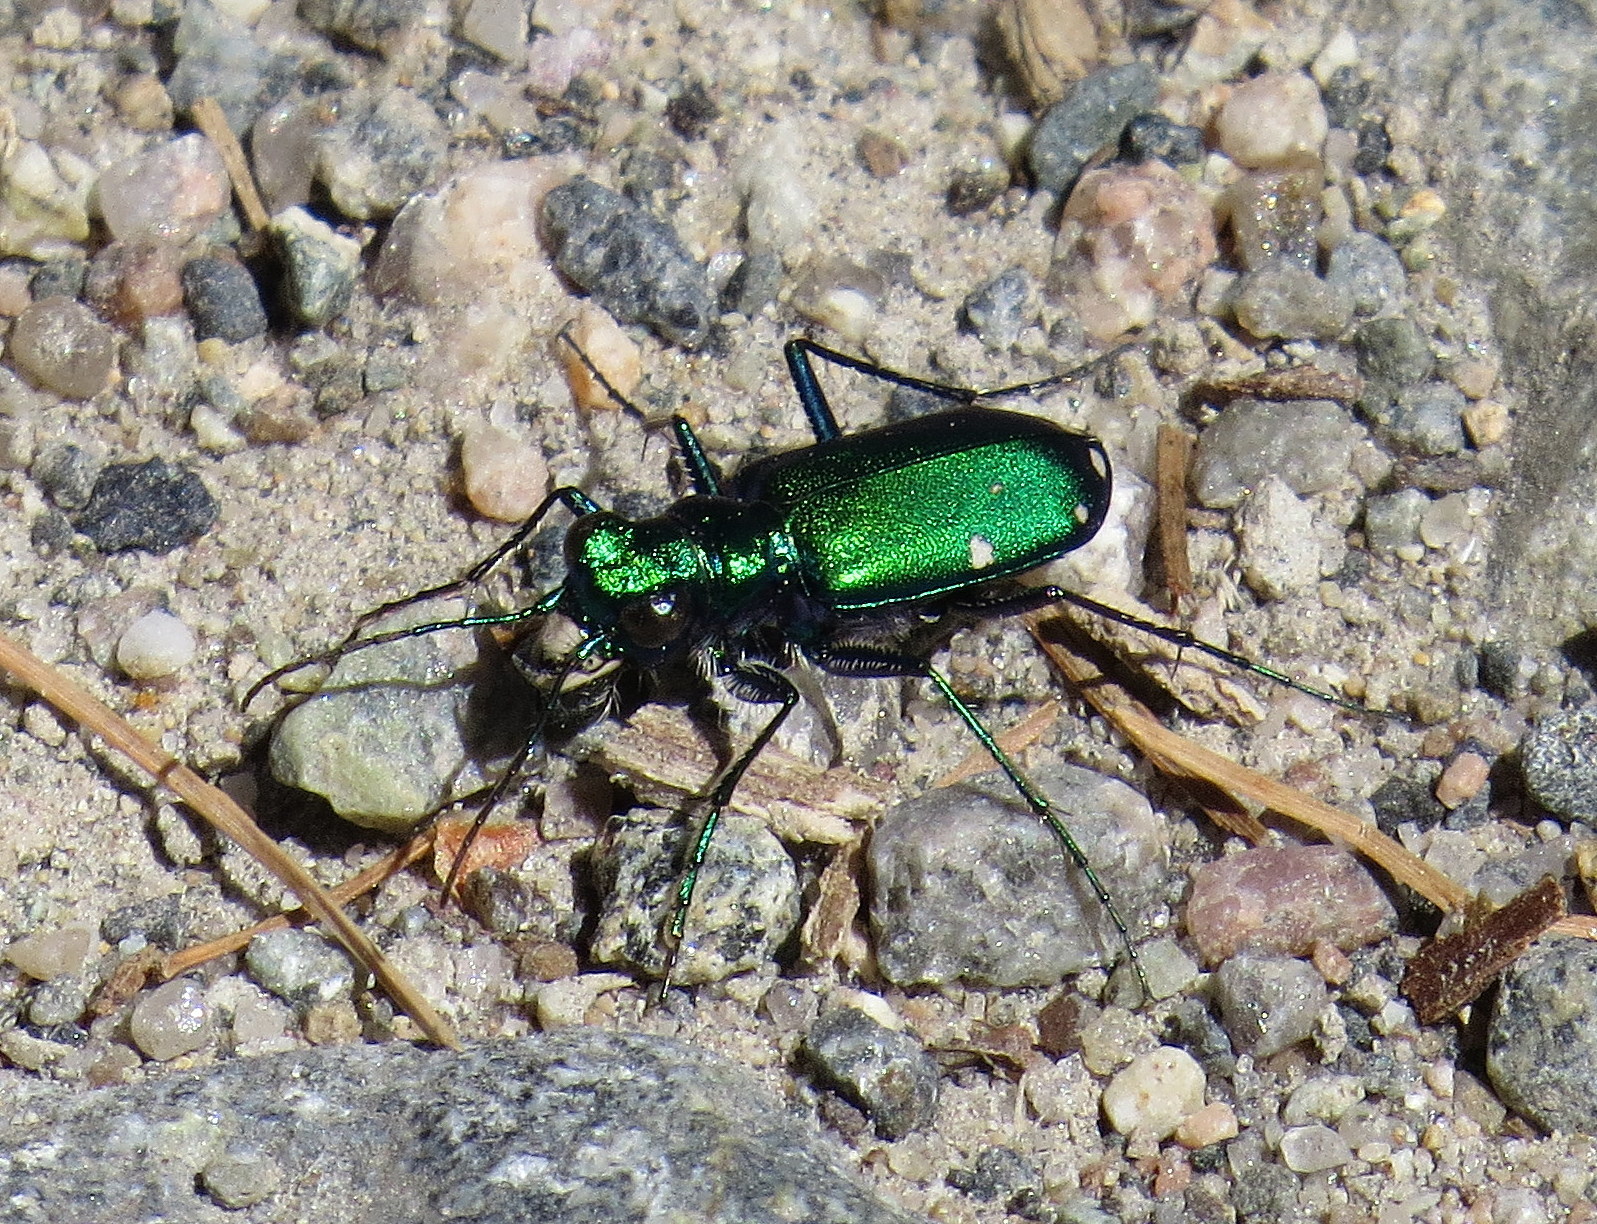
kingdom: Animalia
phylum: Arthropoda
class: Insecta
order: Coleoptera
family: Carabidae
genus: Cicindela
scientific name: Cicindela sexguttata
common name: Six-spotted tiger beetle
